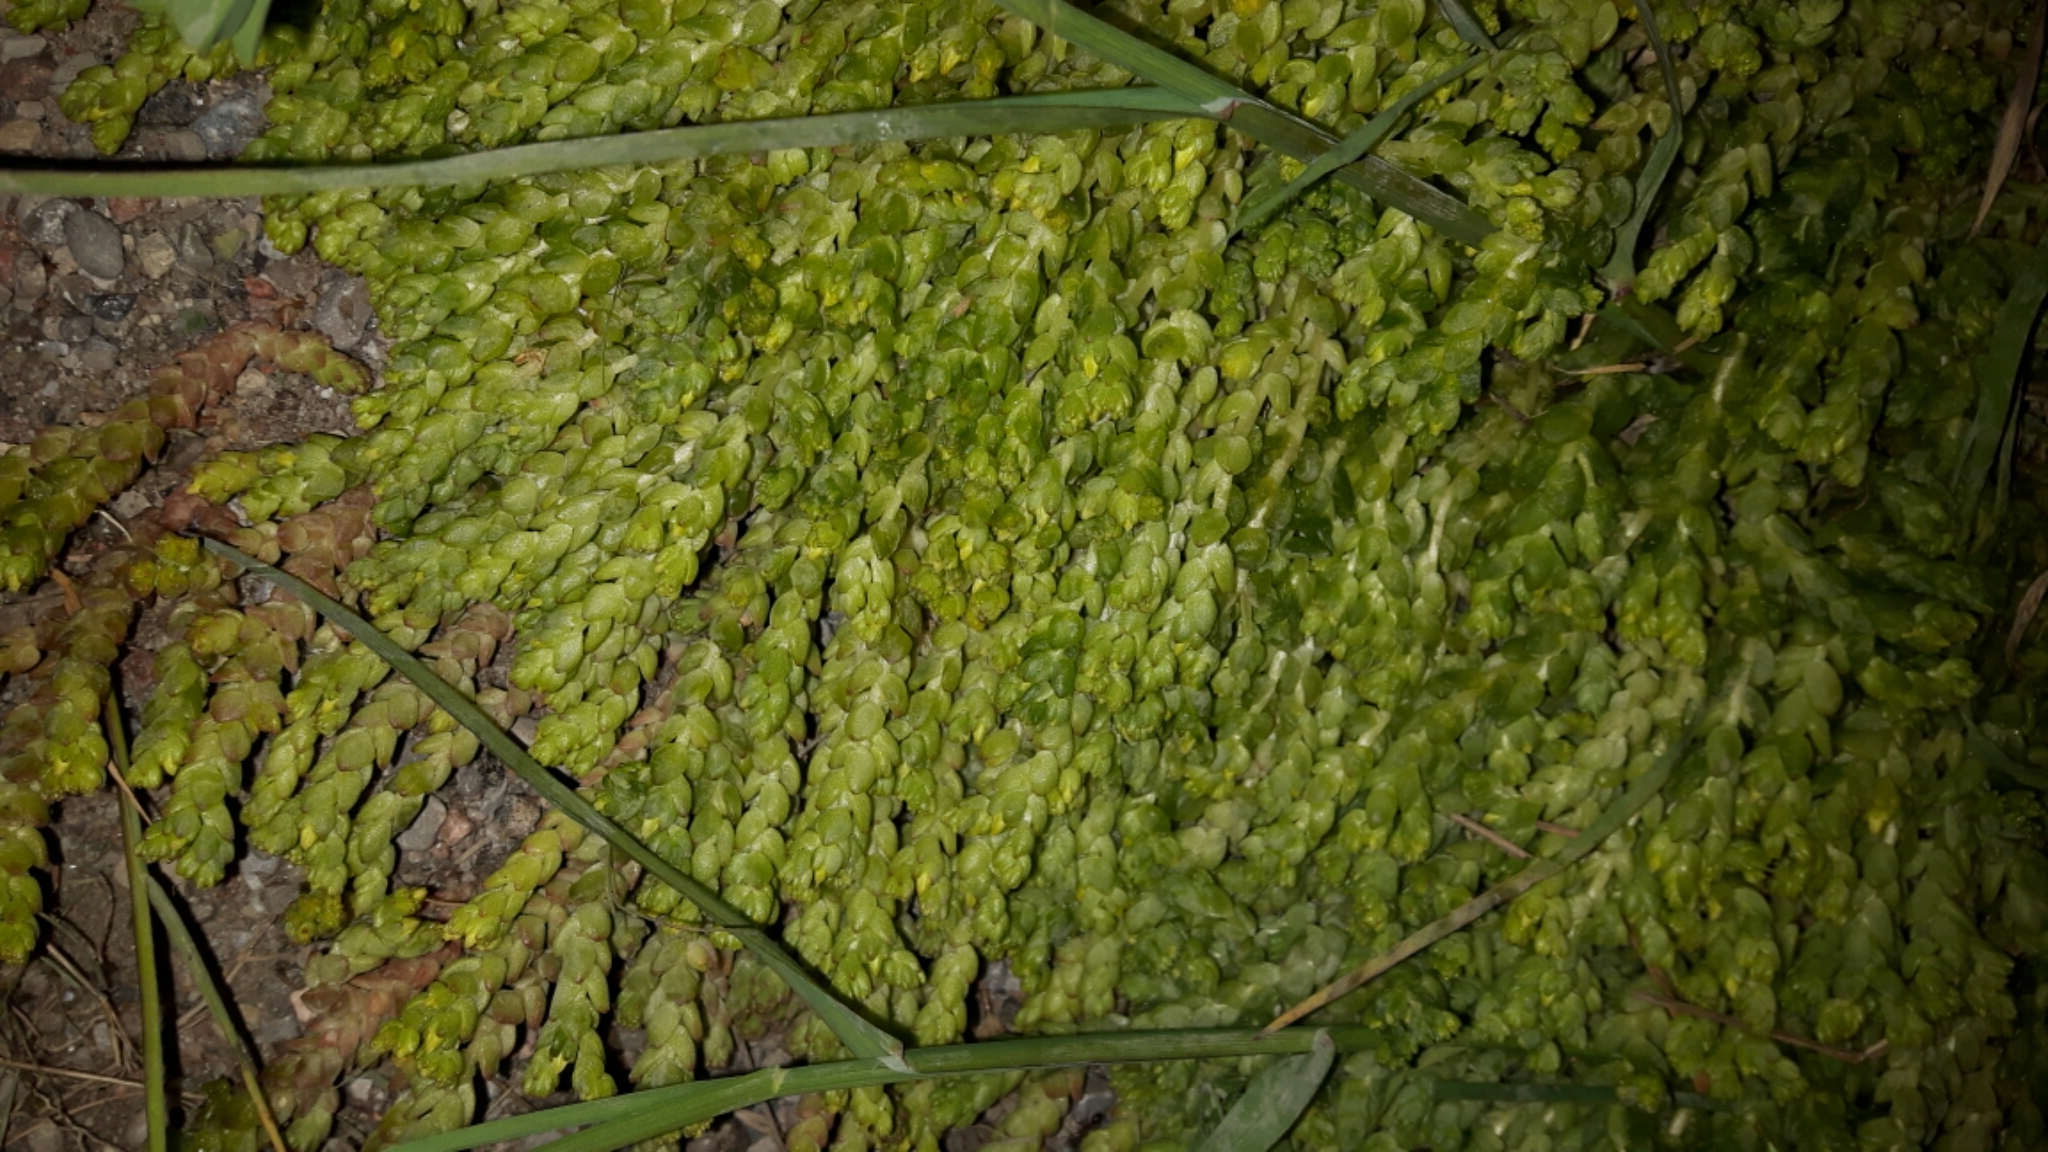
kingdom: Plantae
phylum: Tracheophyta
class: Magnoliopsida
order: Saxifragales
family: Crassulaceae
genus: Sedum
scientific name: Sedum acre
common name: Biting stonecrop
